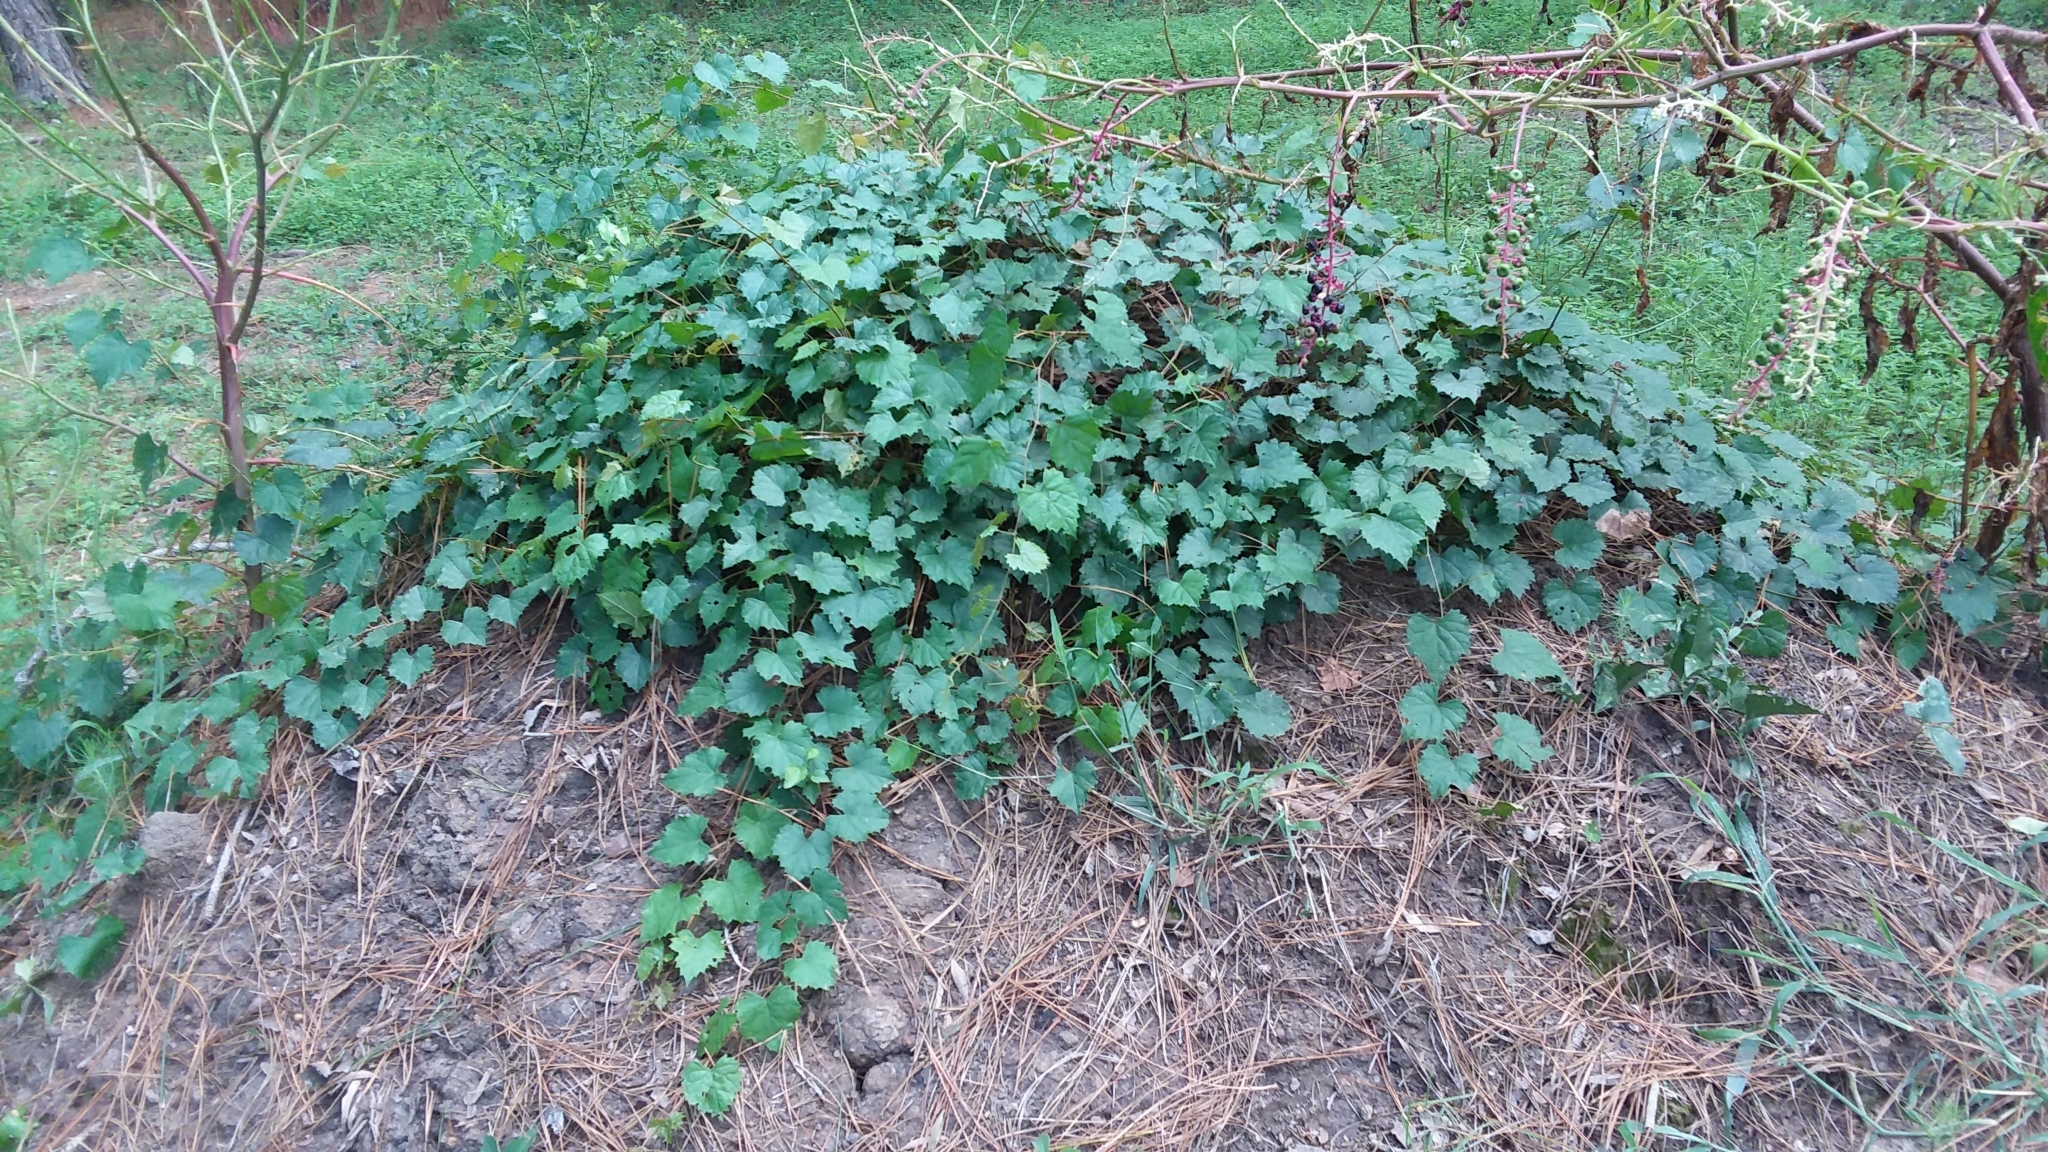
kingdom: Plantae
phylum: Tracheophyta
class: Magnoliopsida
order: Vitales
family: Vitaceae
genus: Vitis
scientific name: Vitis rotundifolia
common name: Muscadine grape
